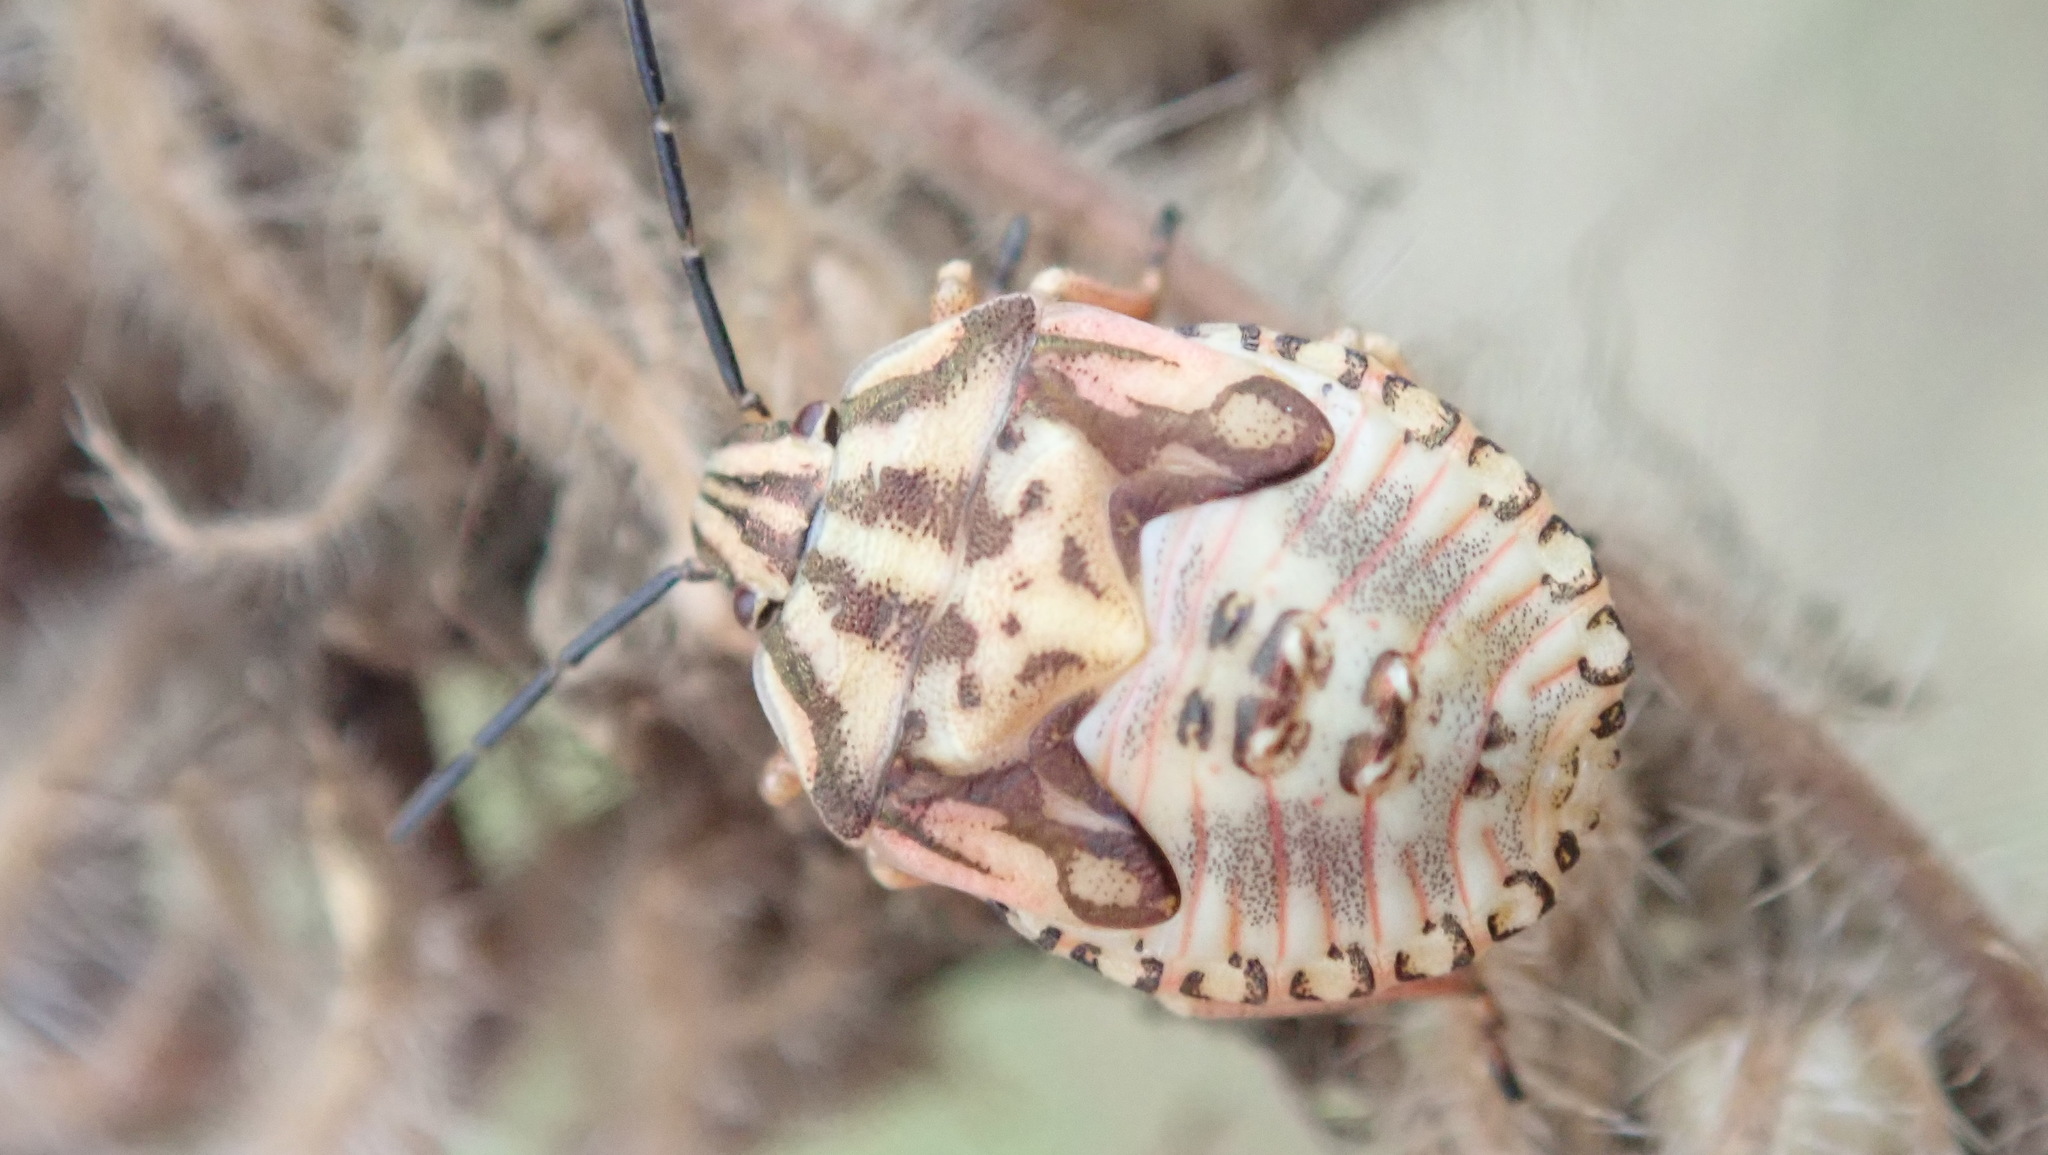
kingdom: Animalia
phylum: Arthropoda
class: Insecta
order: Hemiptera
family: Pentatomidae
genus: Carpocoris
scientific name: Carpocoris purpureipennis
